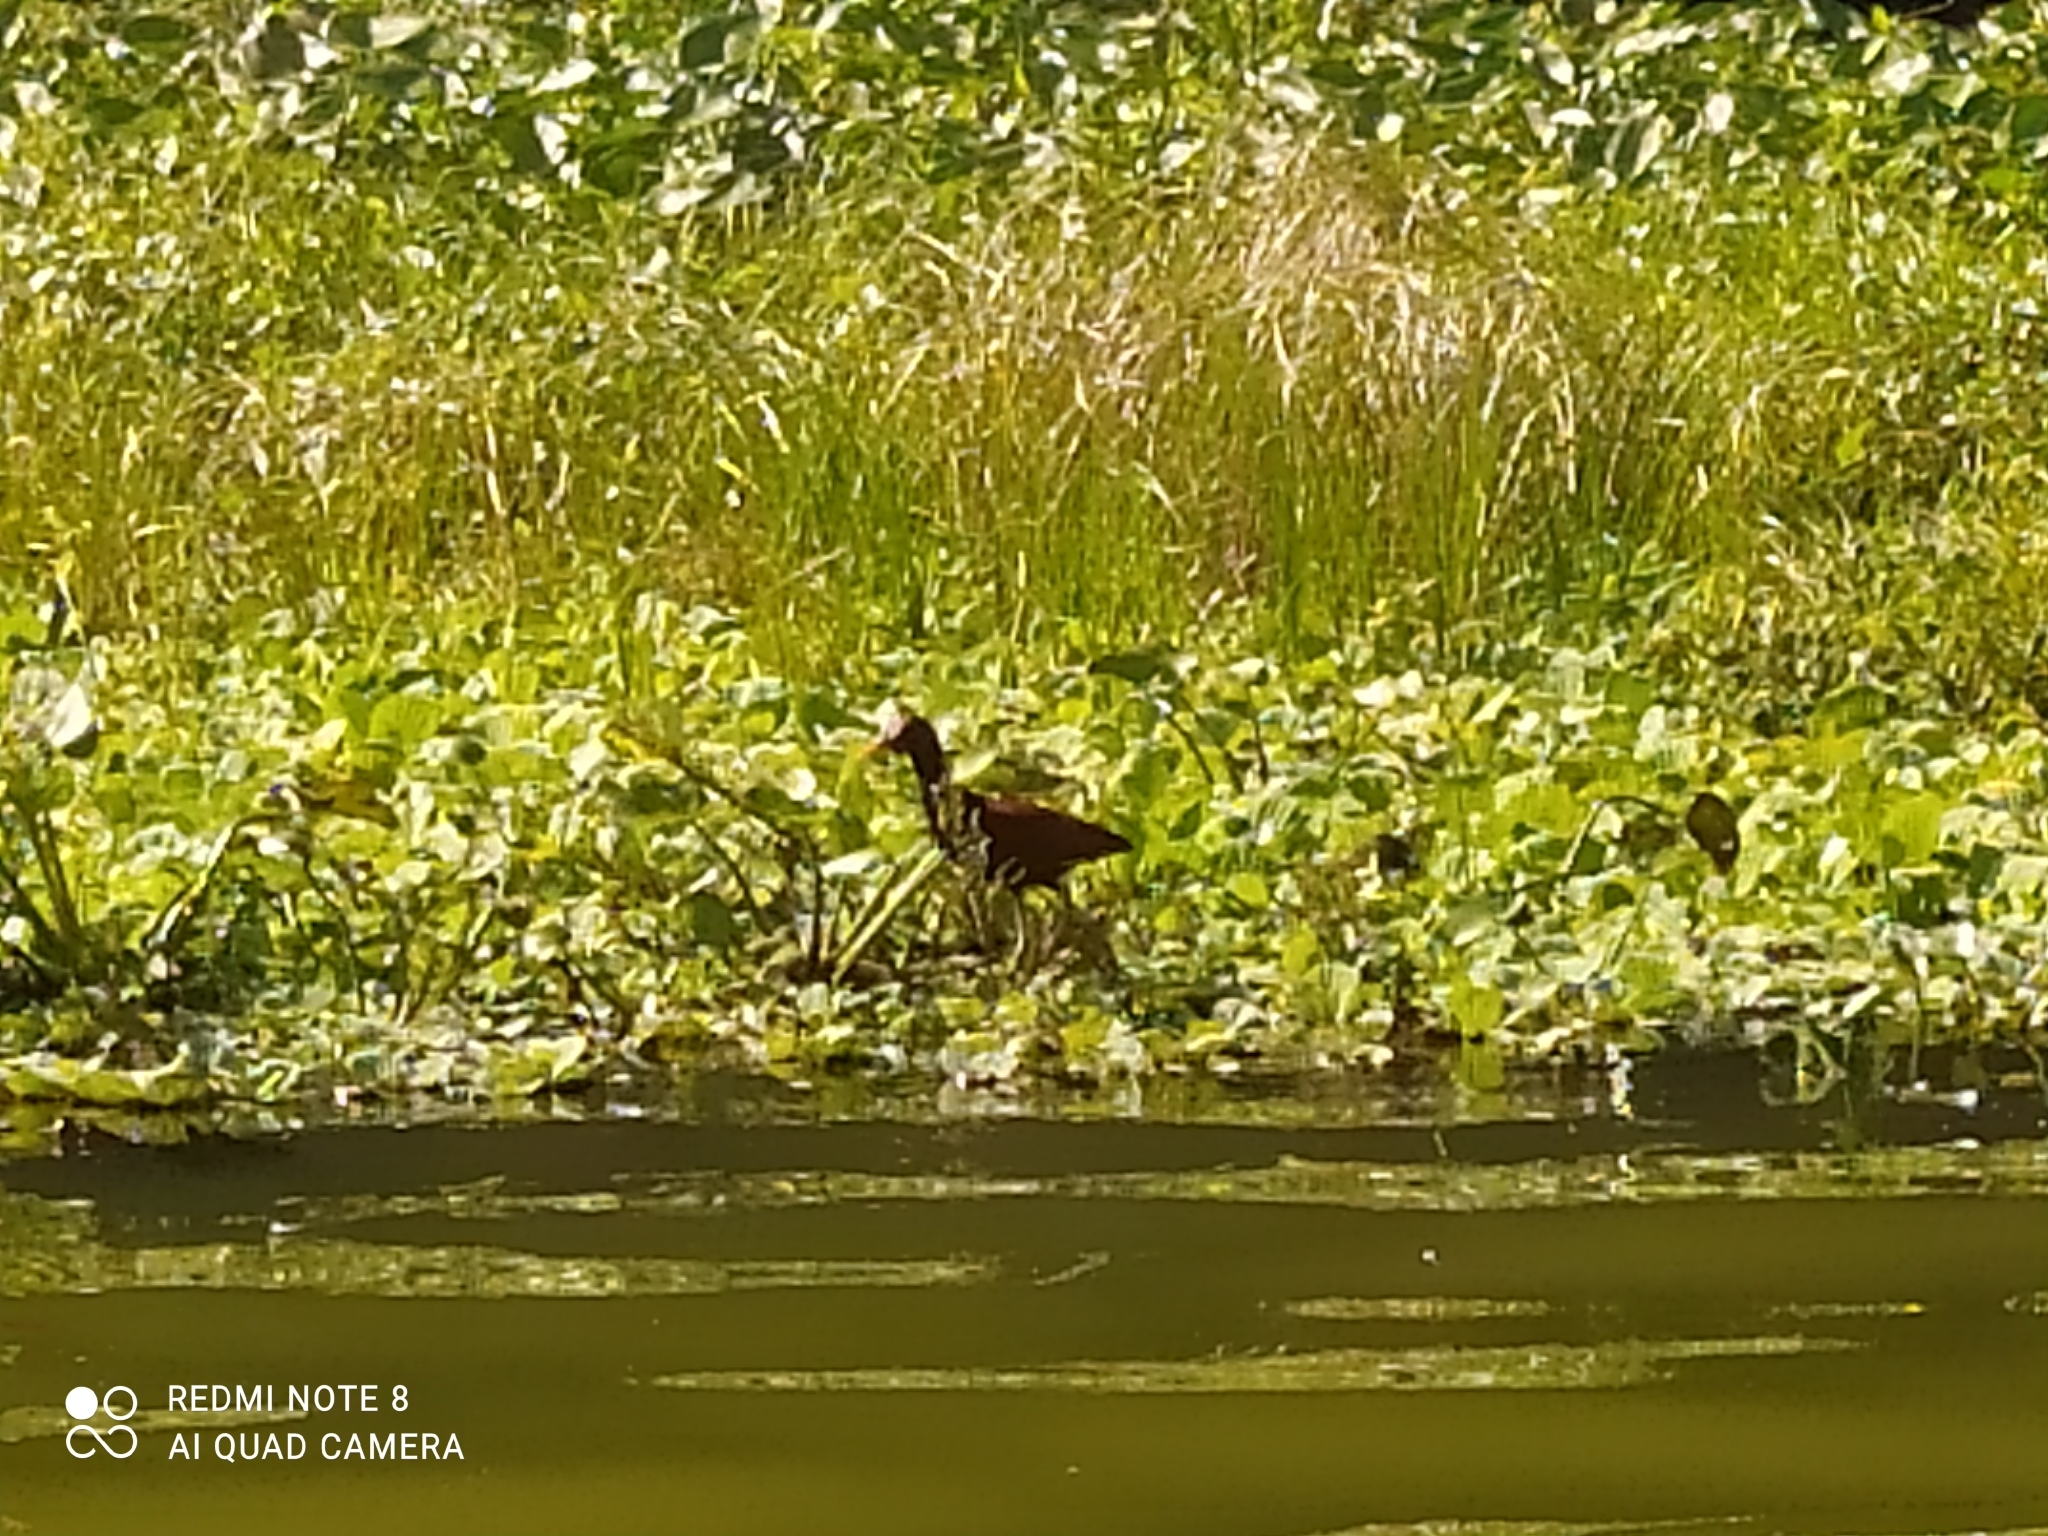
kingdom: Animalia
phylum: Chordata
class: Aves
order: Charadriiformes
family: Jacanidae
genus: Jacana
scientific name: Jacana jacana
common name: Wattled jacana
